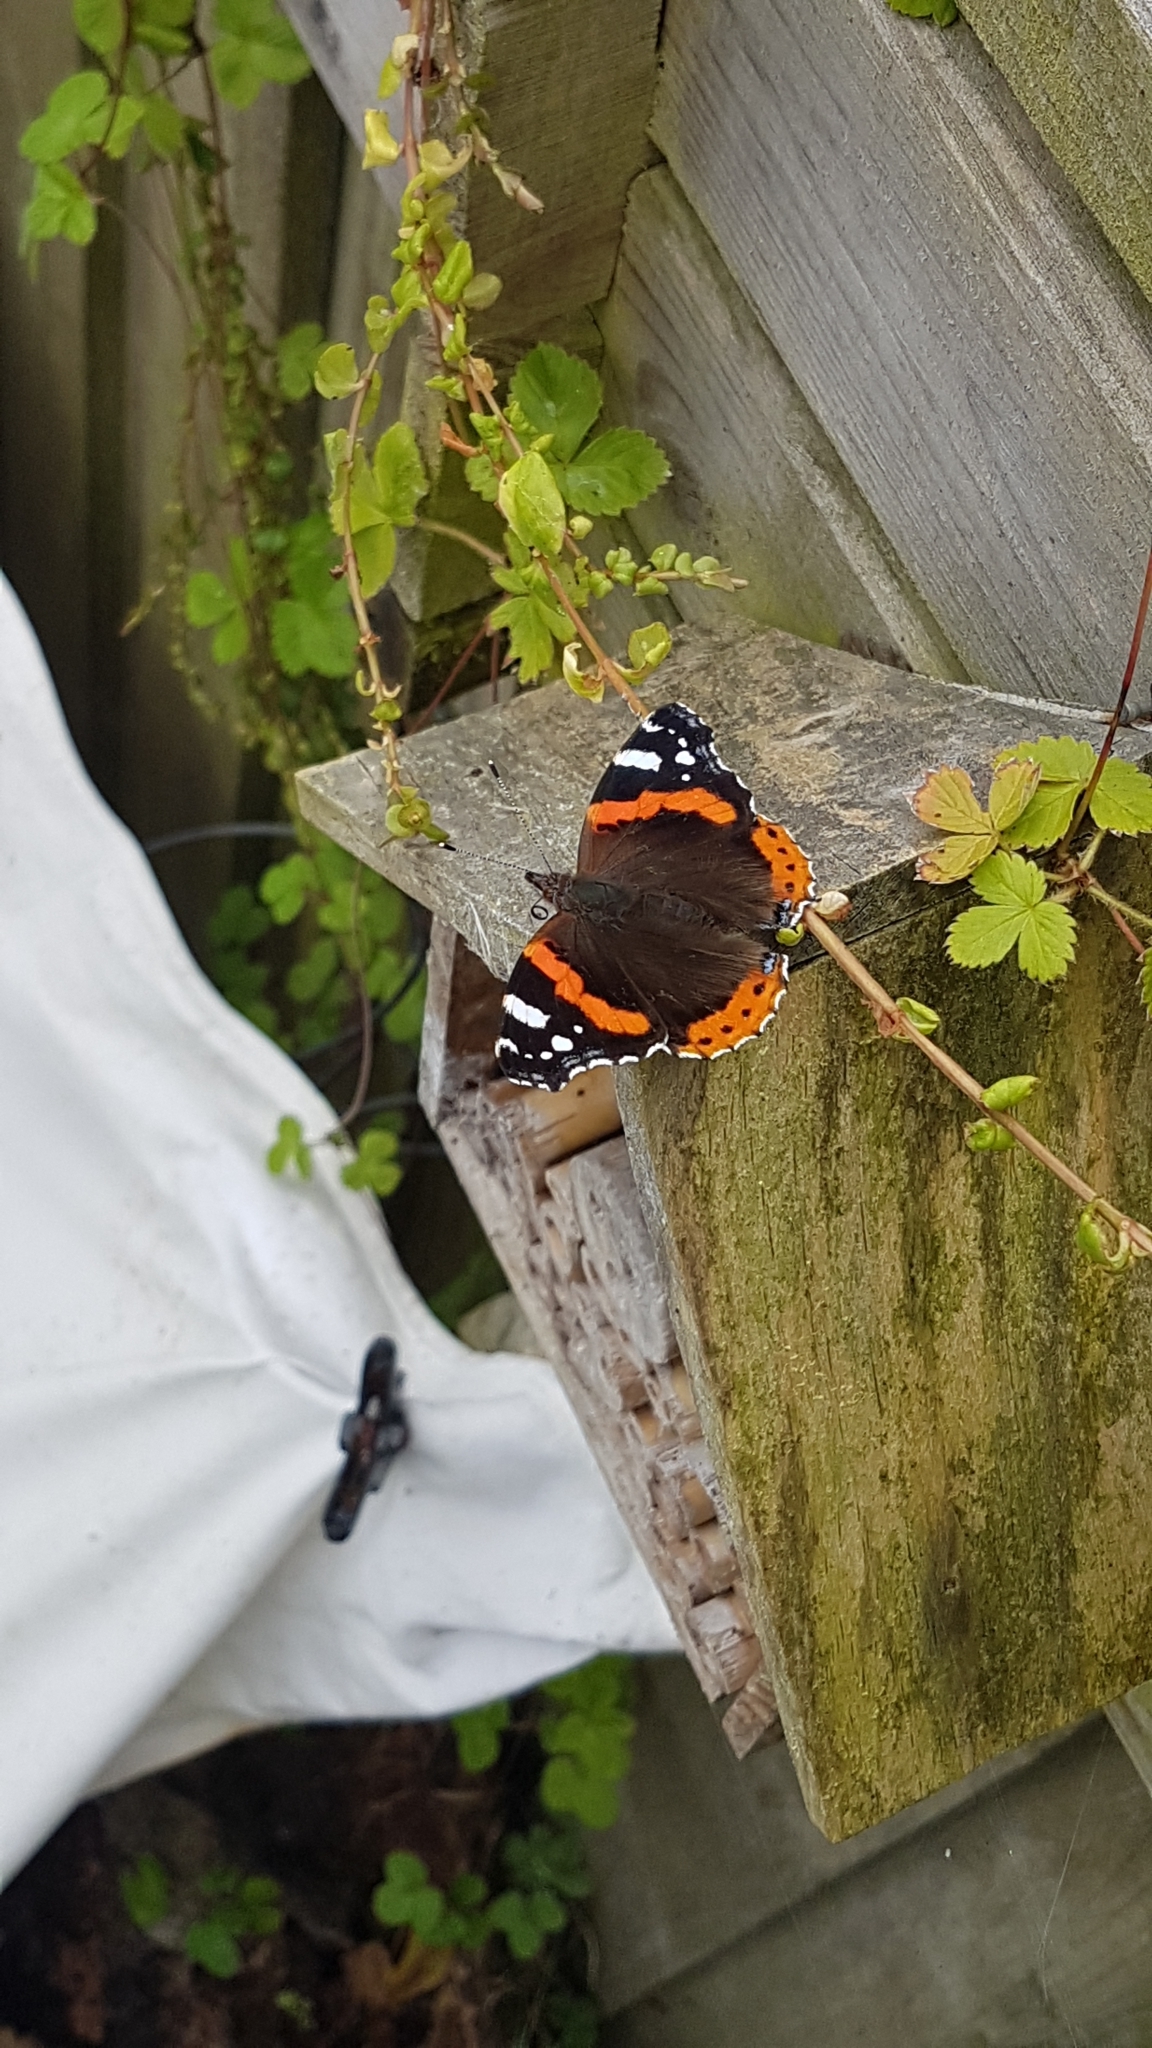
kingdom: Animalia
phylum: Arthropoda
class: Insecta
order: Lepidoptera
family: Nymphalidae
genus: Vanessa
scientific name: Vanessa atalanta
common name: Red admiral
